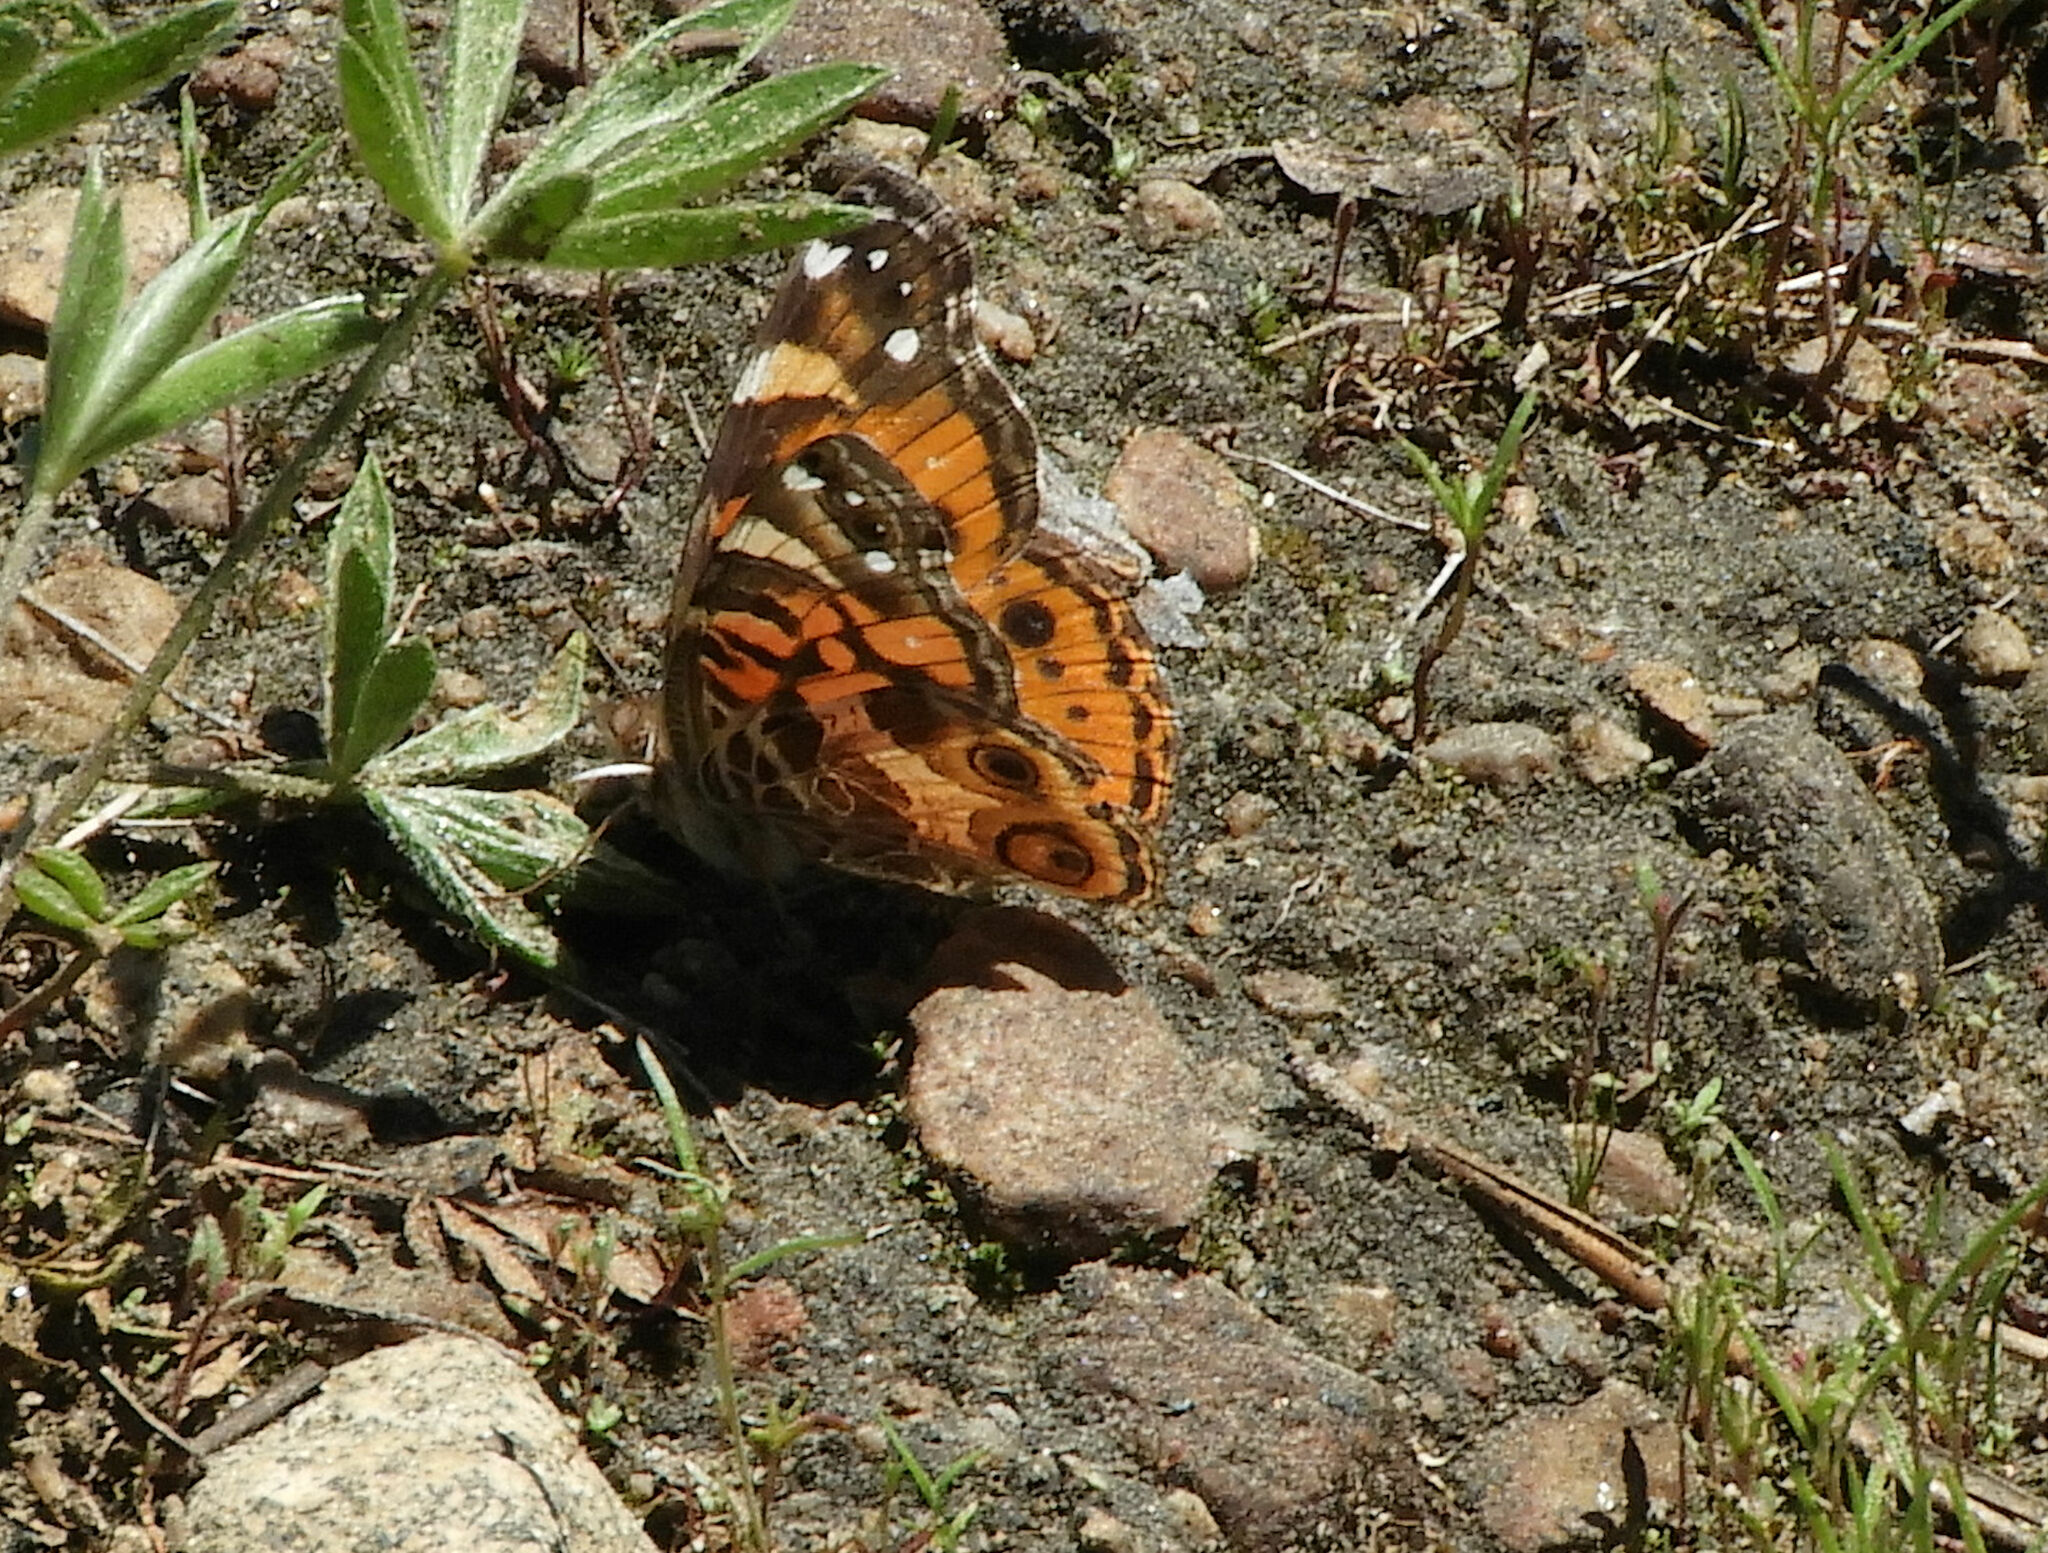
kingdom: Animalia
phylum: Arthropoda
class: Insecta
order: Lepidoptera
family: Nymphalidae
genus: Vanessa
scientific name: Vanessa virginiensis
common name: American lady
